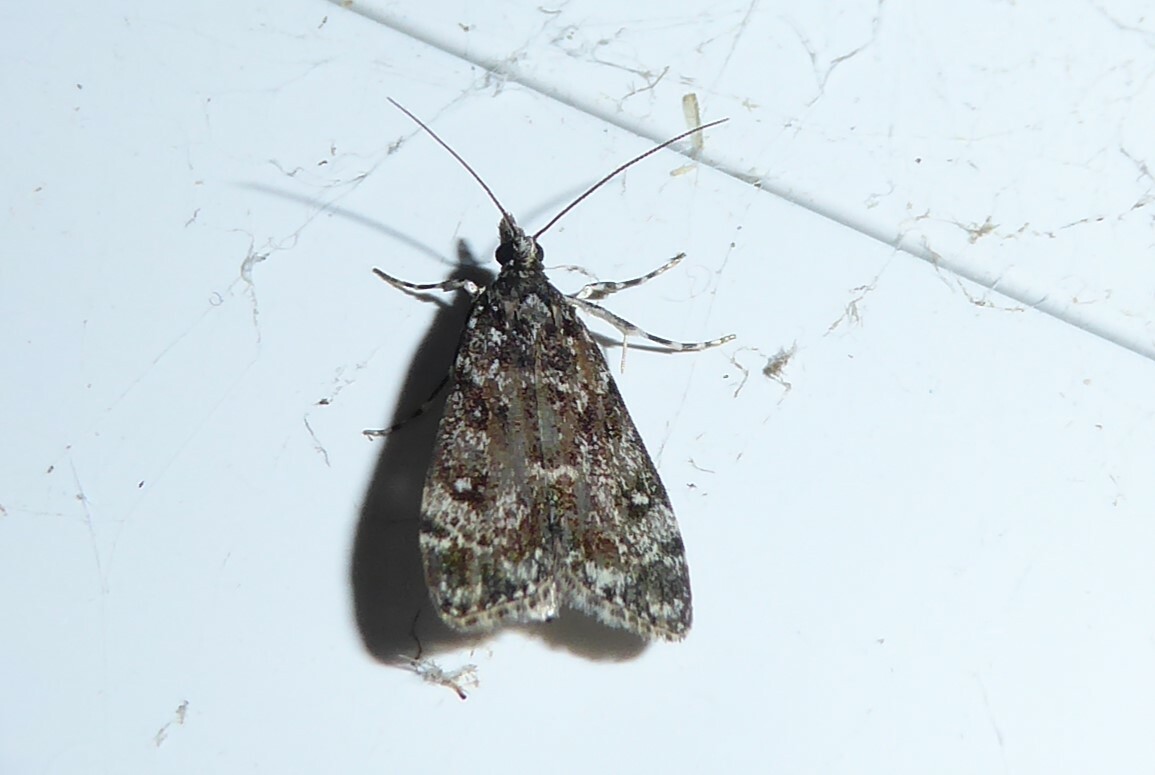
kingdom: Animalia
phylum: Arthropoda
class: Insecta
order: Lepidoptera
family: Crambidae
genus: Eudonia
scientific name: Eudonia philerga
